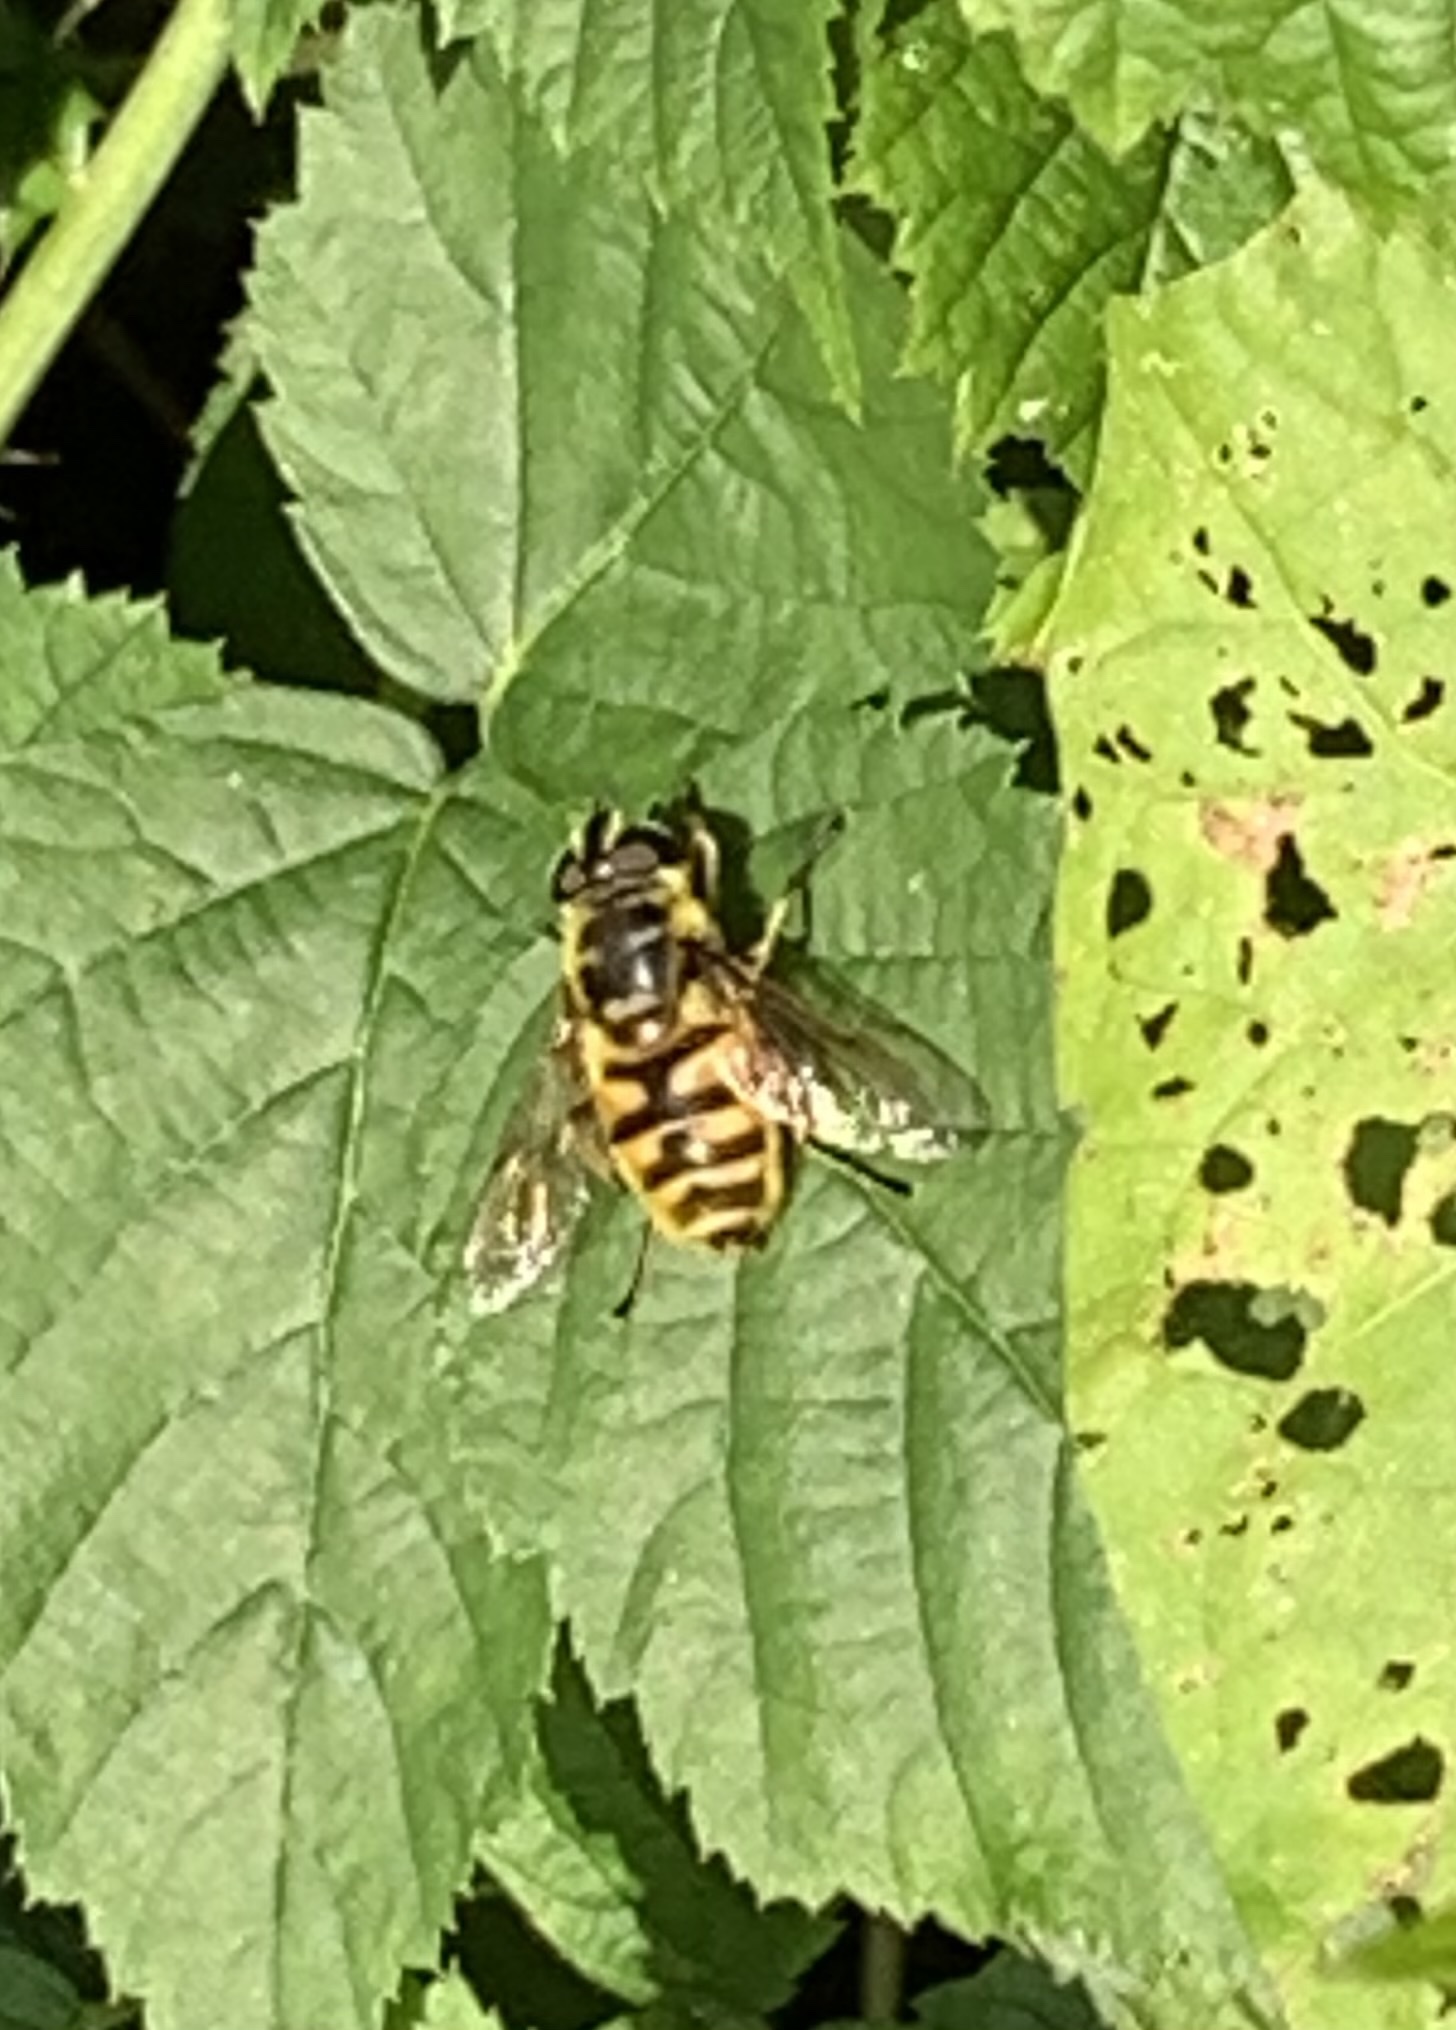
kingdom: Animalia
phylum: Arthropoda
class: Insecta
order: Diptera
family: Syrphidae
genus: Myathropa
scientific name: Myathropa florea
